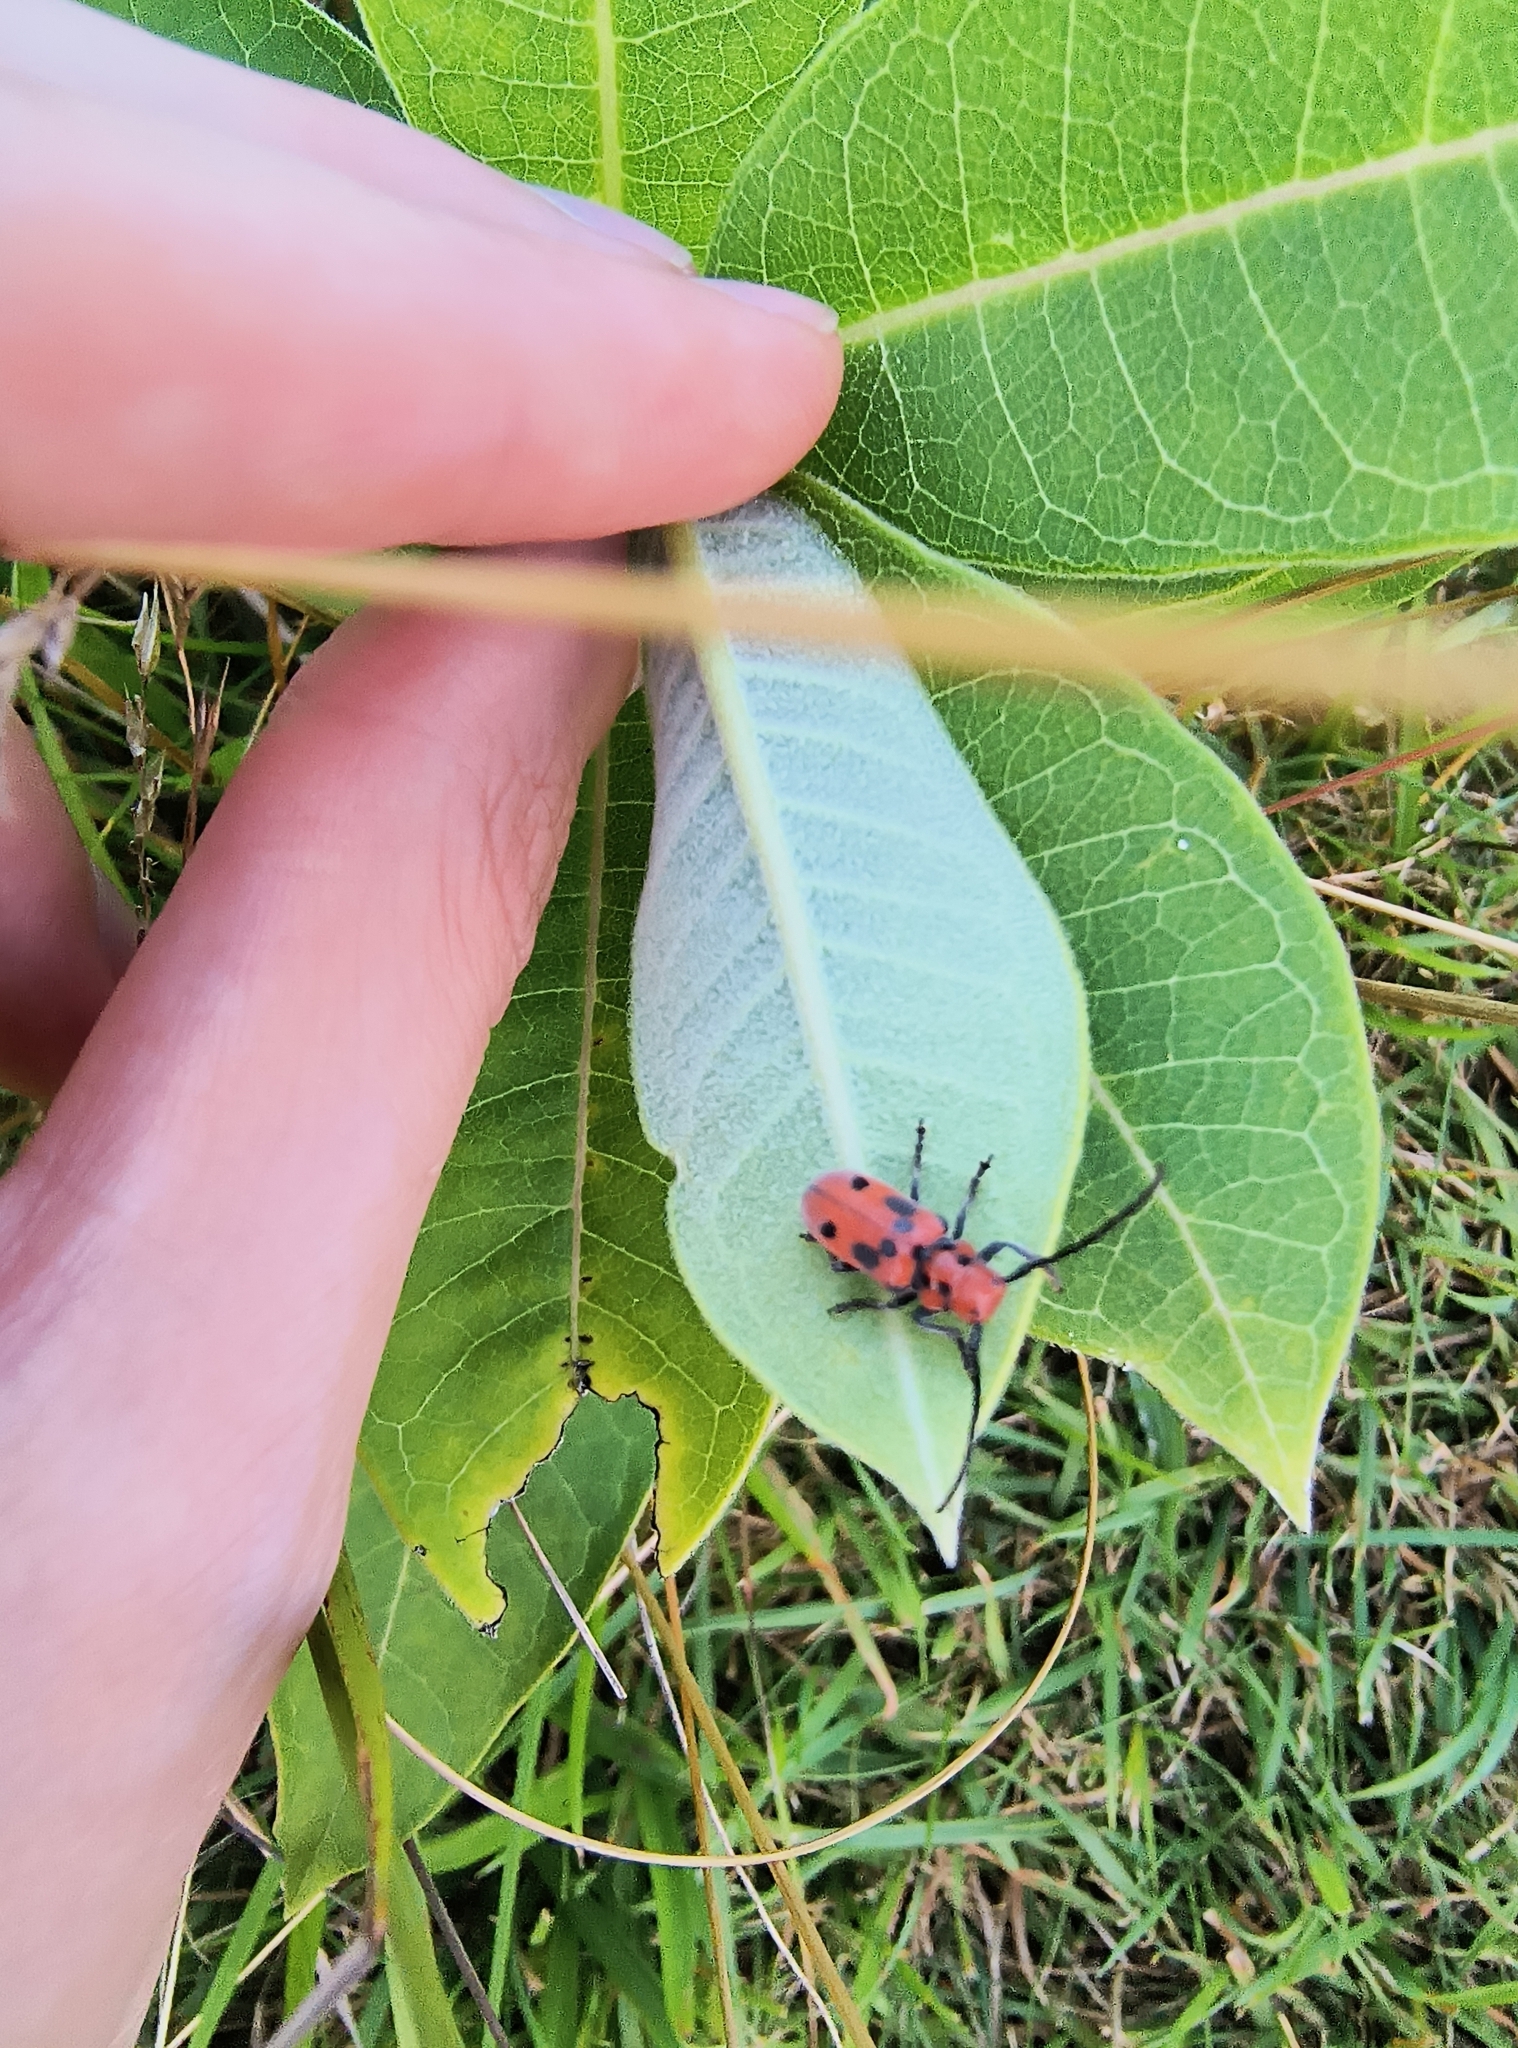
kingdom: Animalia
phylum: Arthropoda
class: Insecta
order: Coleoptera
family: Cerambycidae
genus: Tetraopes
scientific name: Tetraopes tetrophthalmus
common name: Red milkweed beetle
